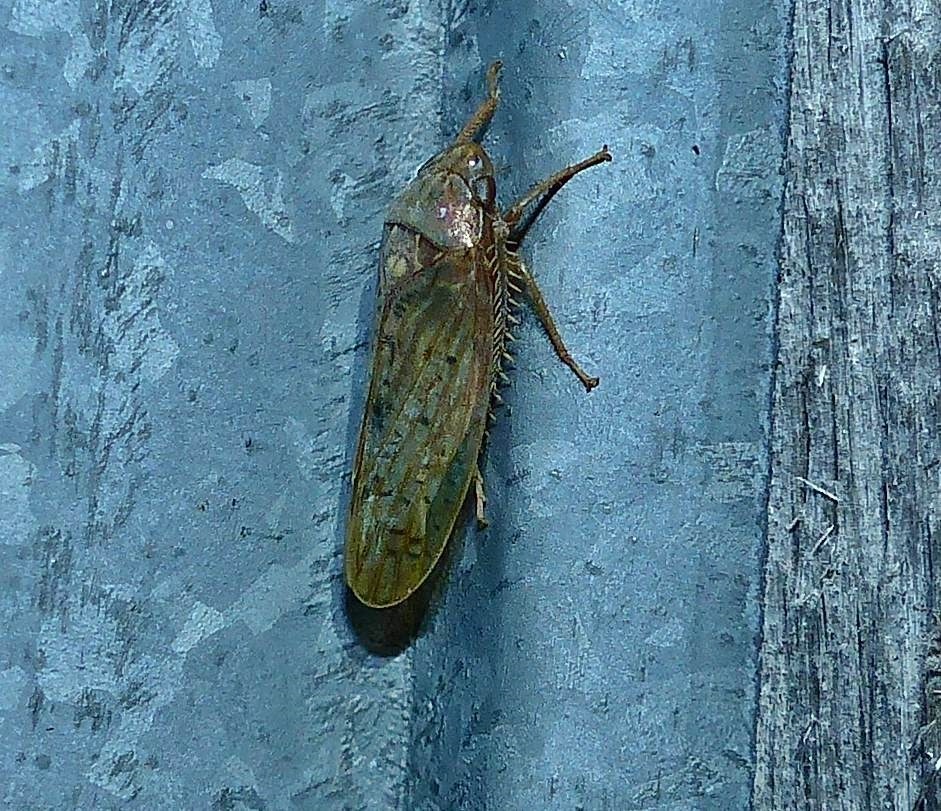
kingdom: Animalia
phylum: Arthropoda
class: Insecta
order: Hemiptera
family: Cicadellidae
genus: Ponana
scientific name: Ponana rubida
